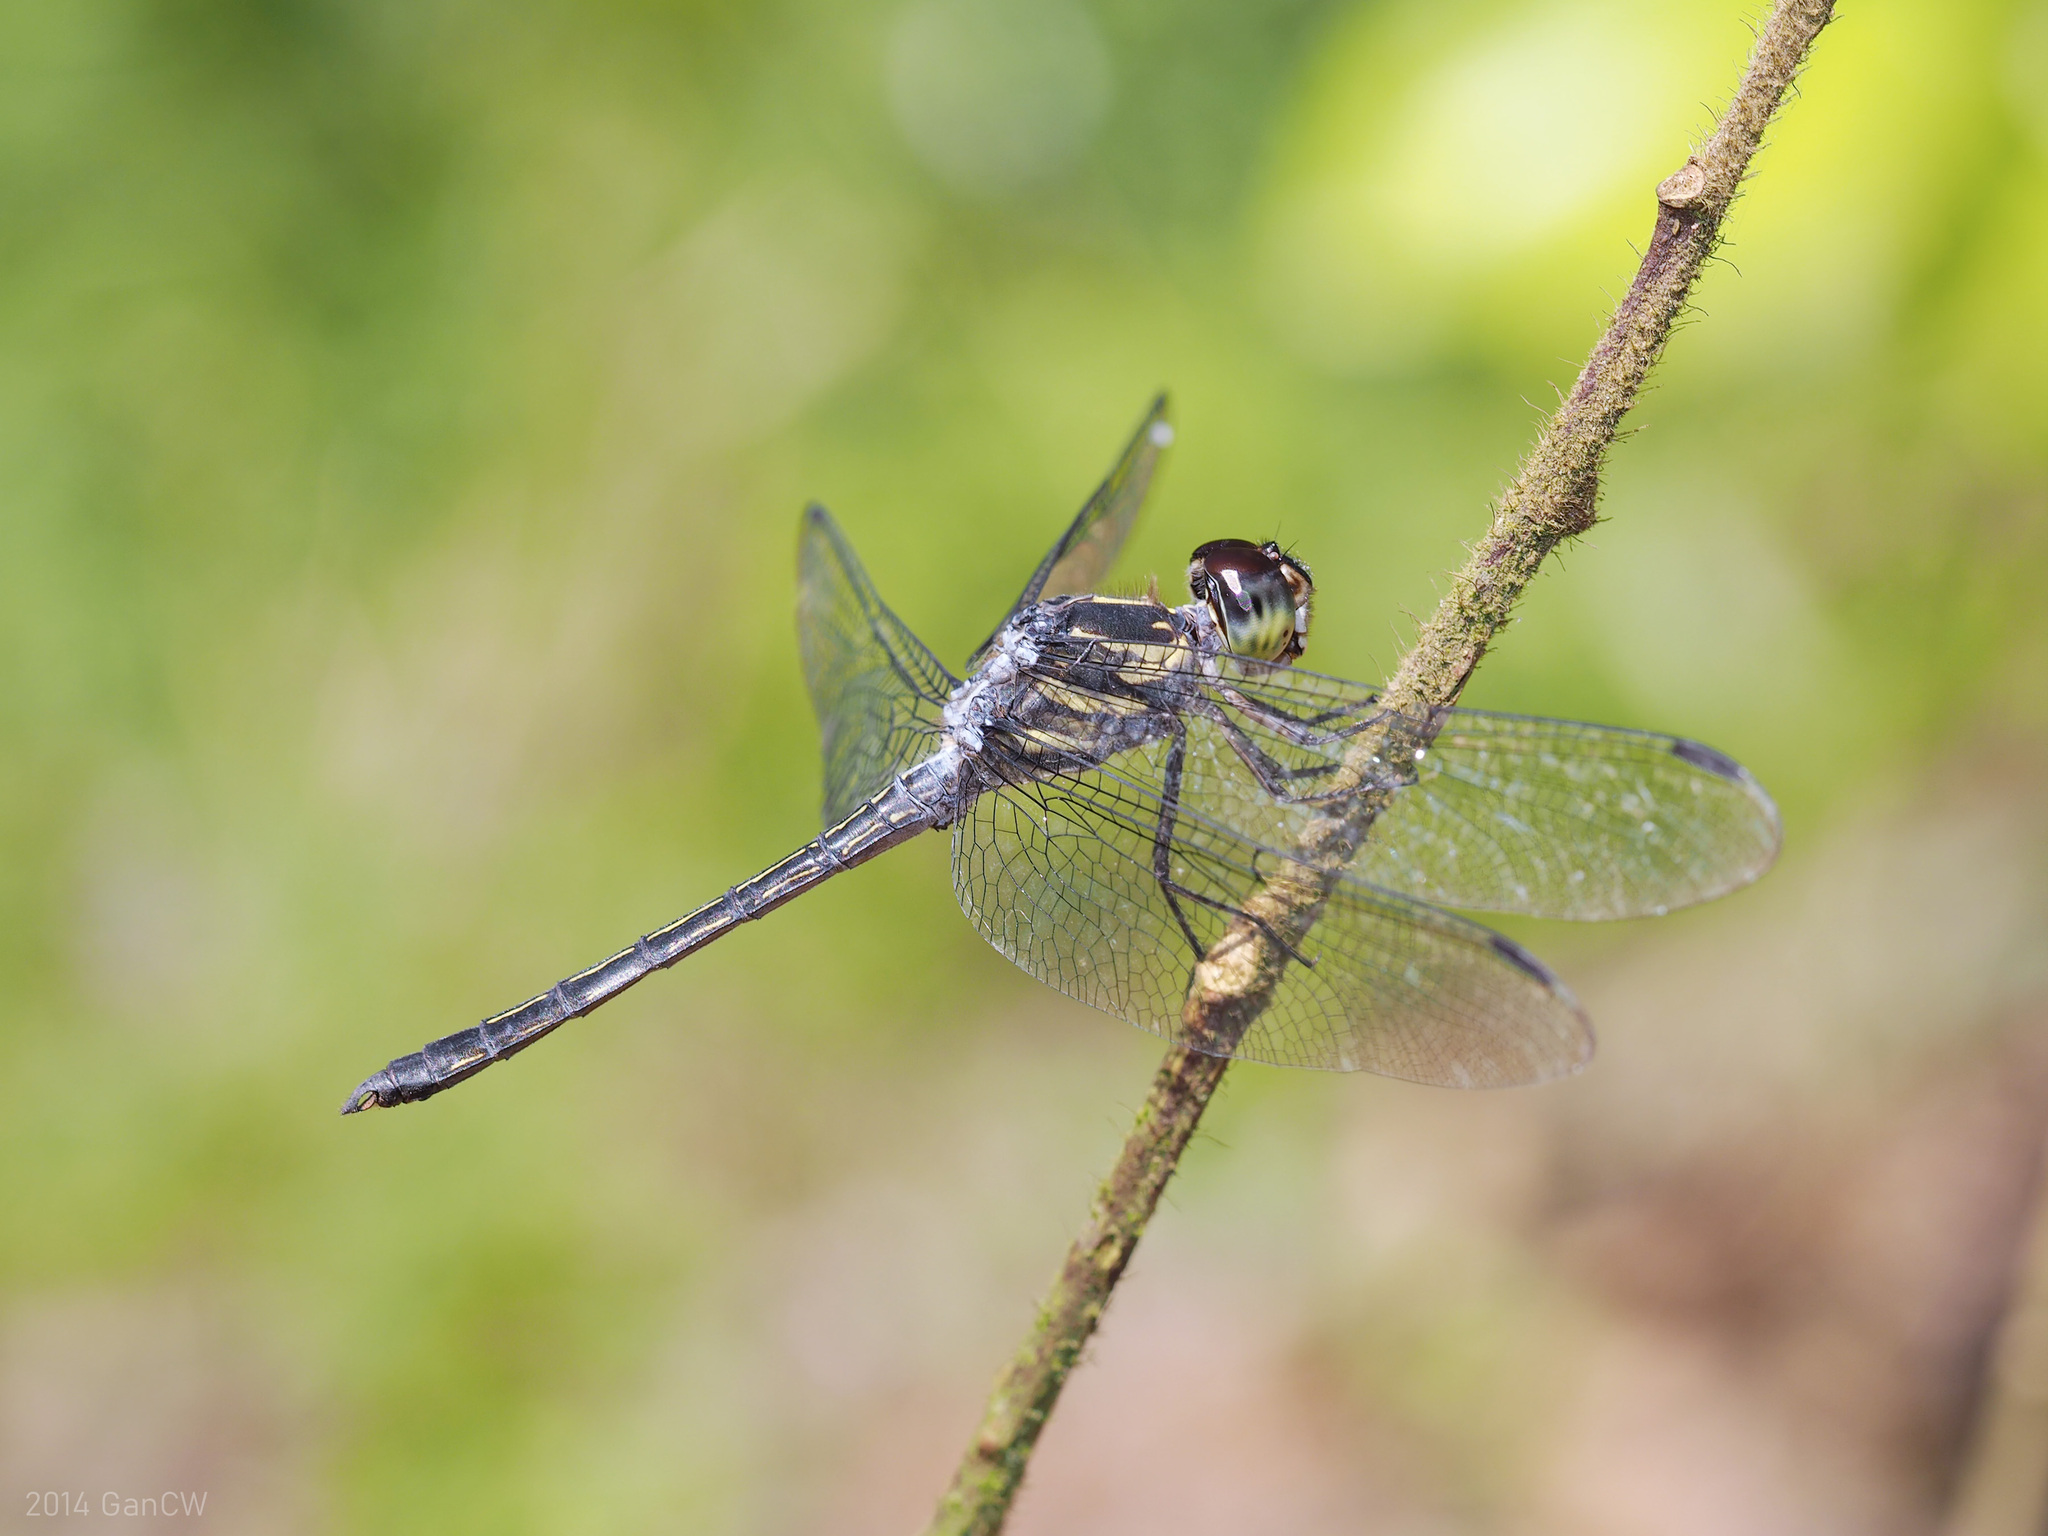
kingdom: Animalia
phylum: Arthropoda
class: Insecta
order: Odonata
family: Libellulidae
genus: Cratilla
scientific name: Cratilla lineata
